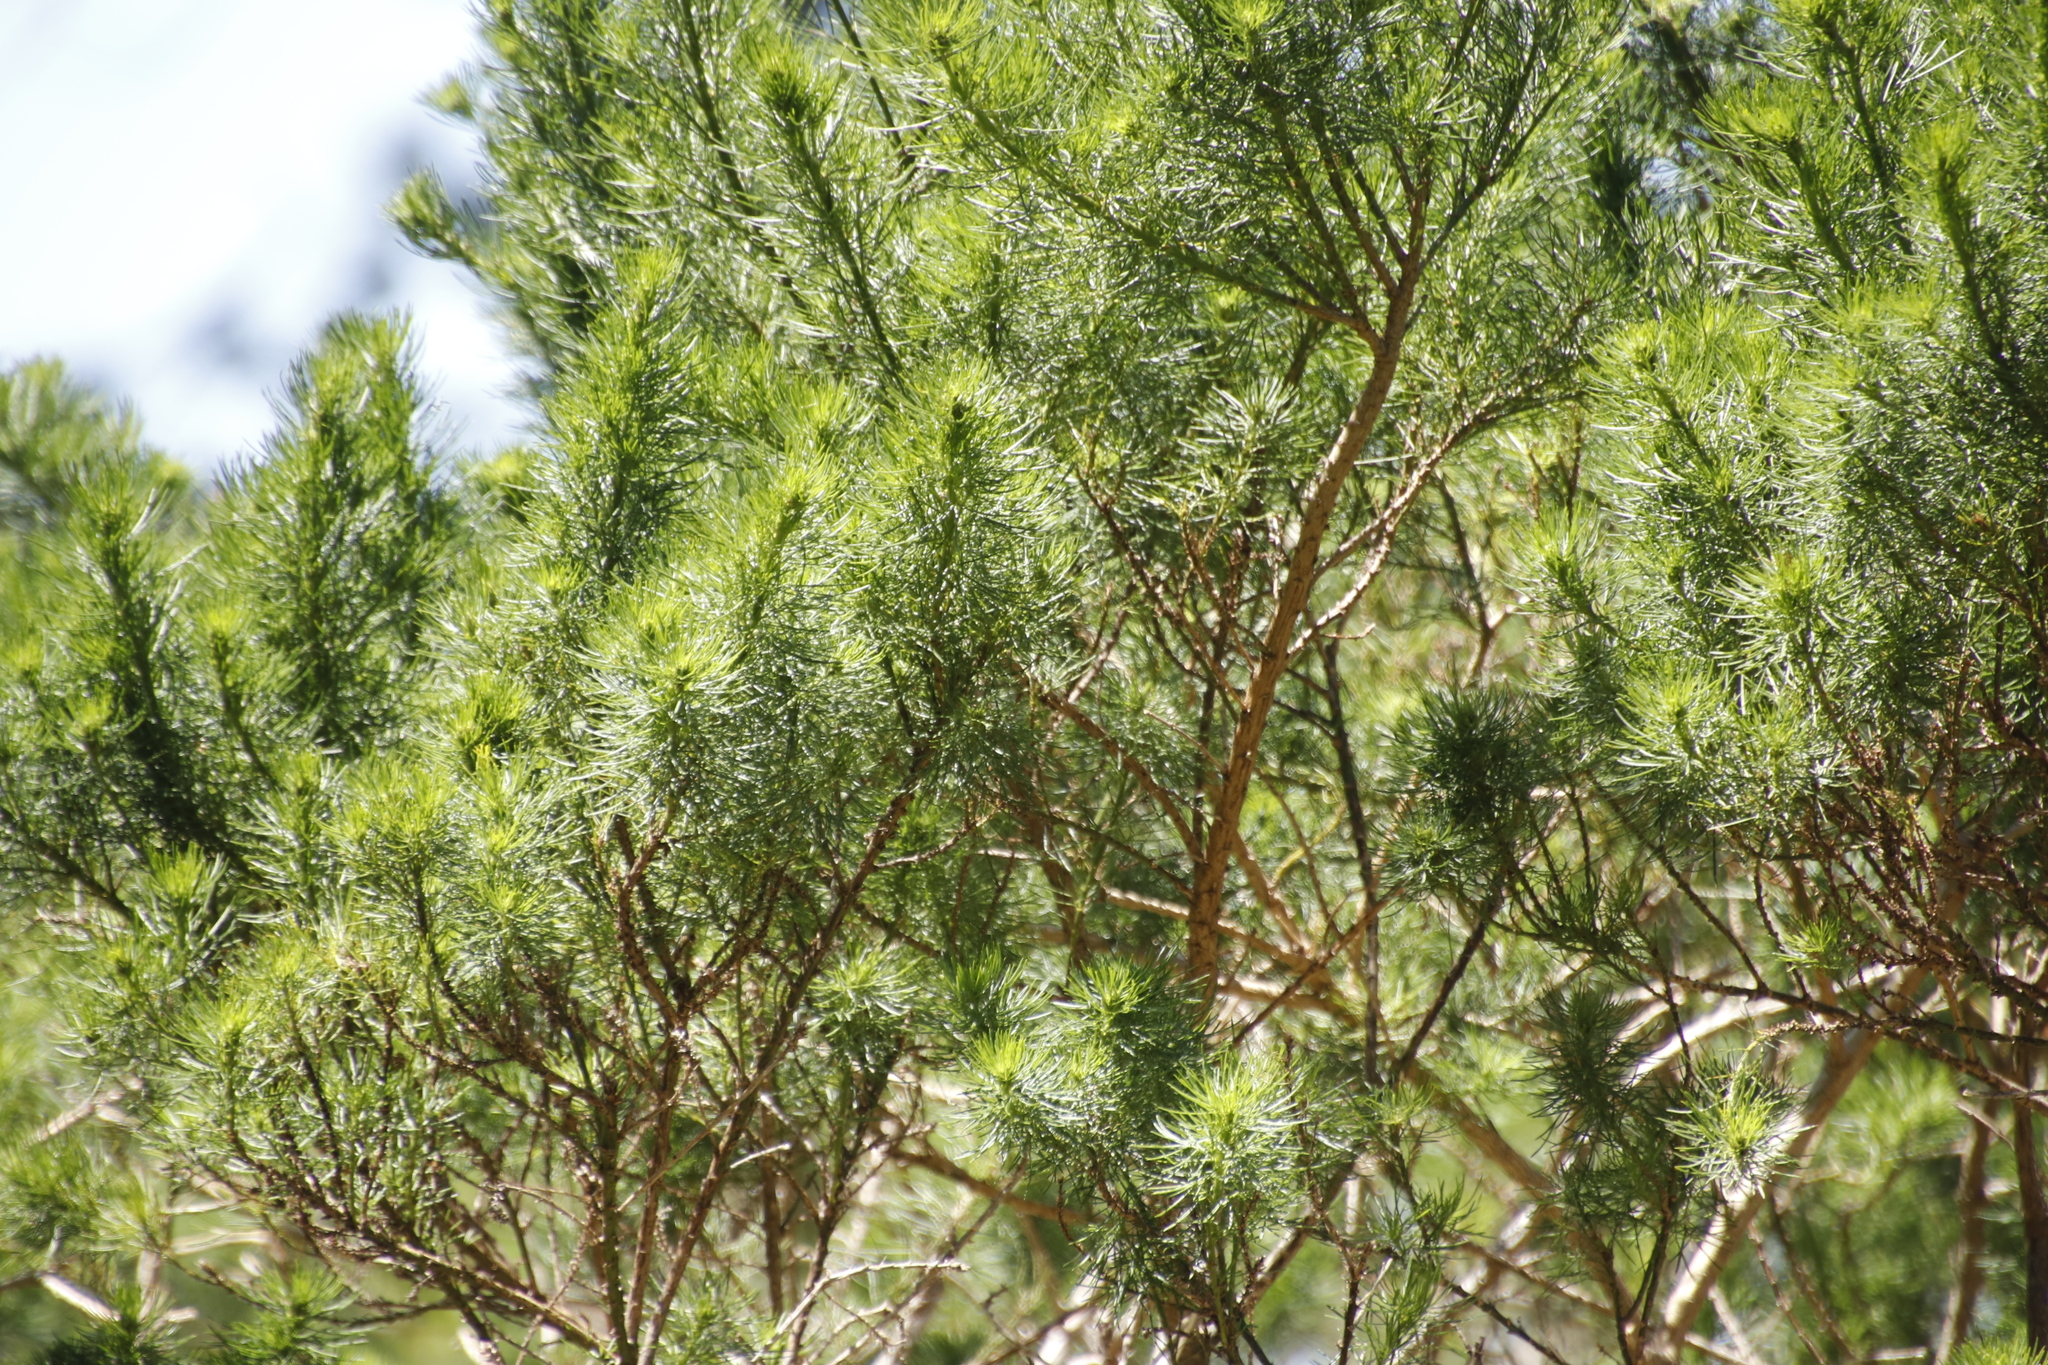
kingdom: Plantae
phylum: Tracheophyta
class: Magnoliopsida
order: Fabales
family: Fabaceae
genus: Psoralea
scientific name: Psoralea pinnata
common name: African scurfpea
